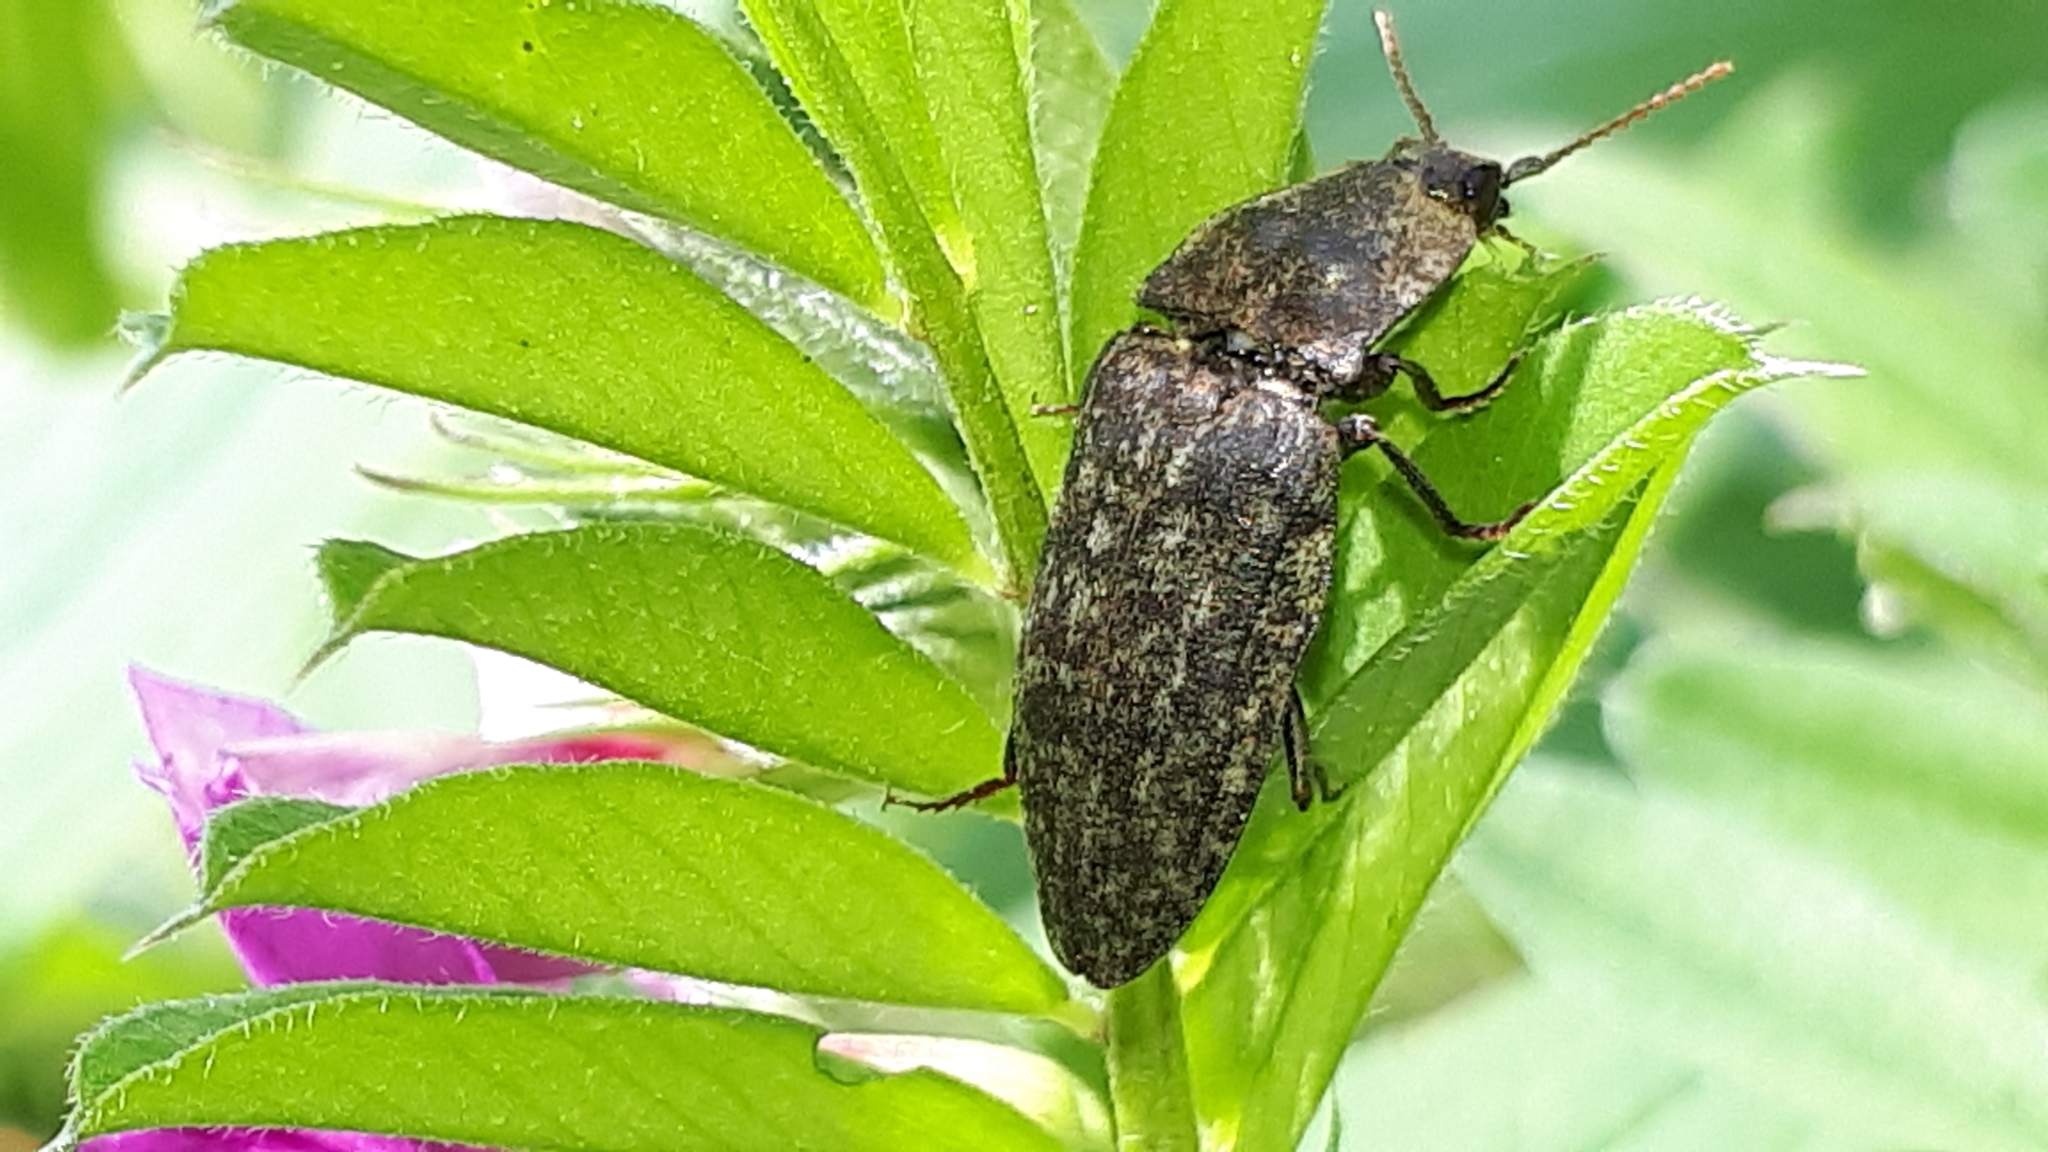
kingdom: Animalia
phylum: Arthropoda
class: Insecta
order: Coleoptera
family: Elateridae
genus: Agrypnus
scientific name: Agrypnus murinus
